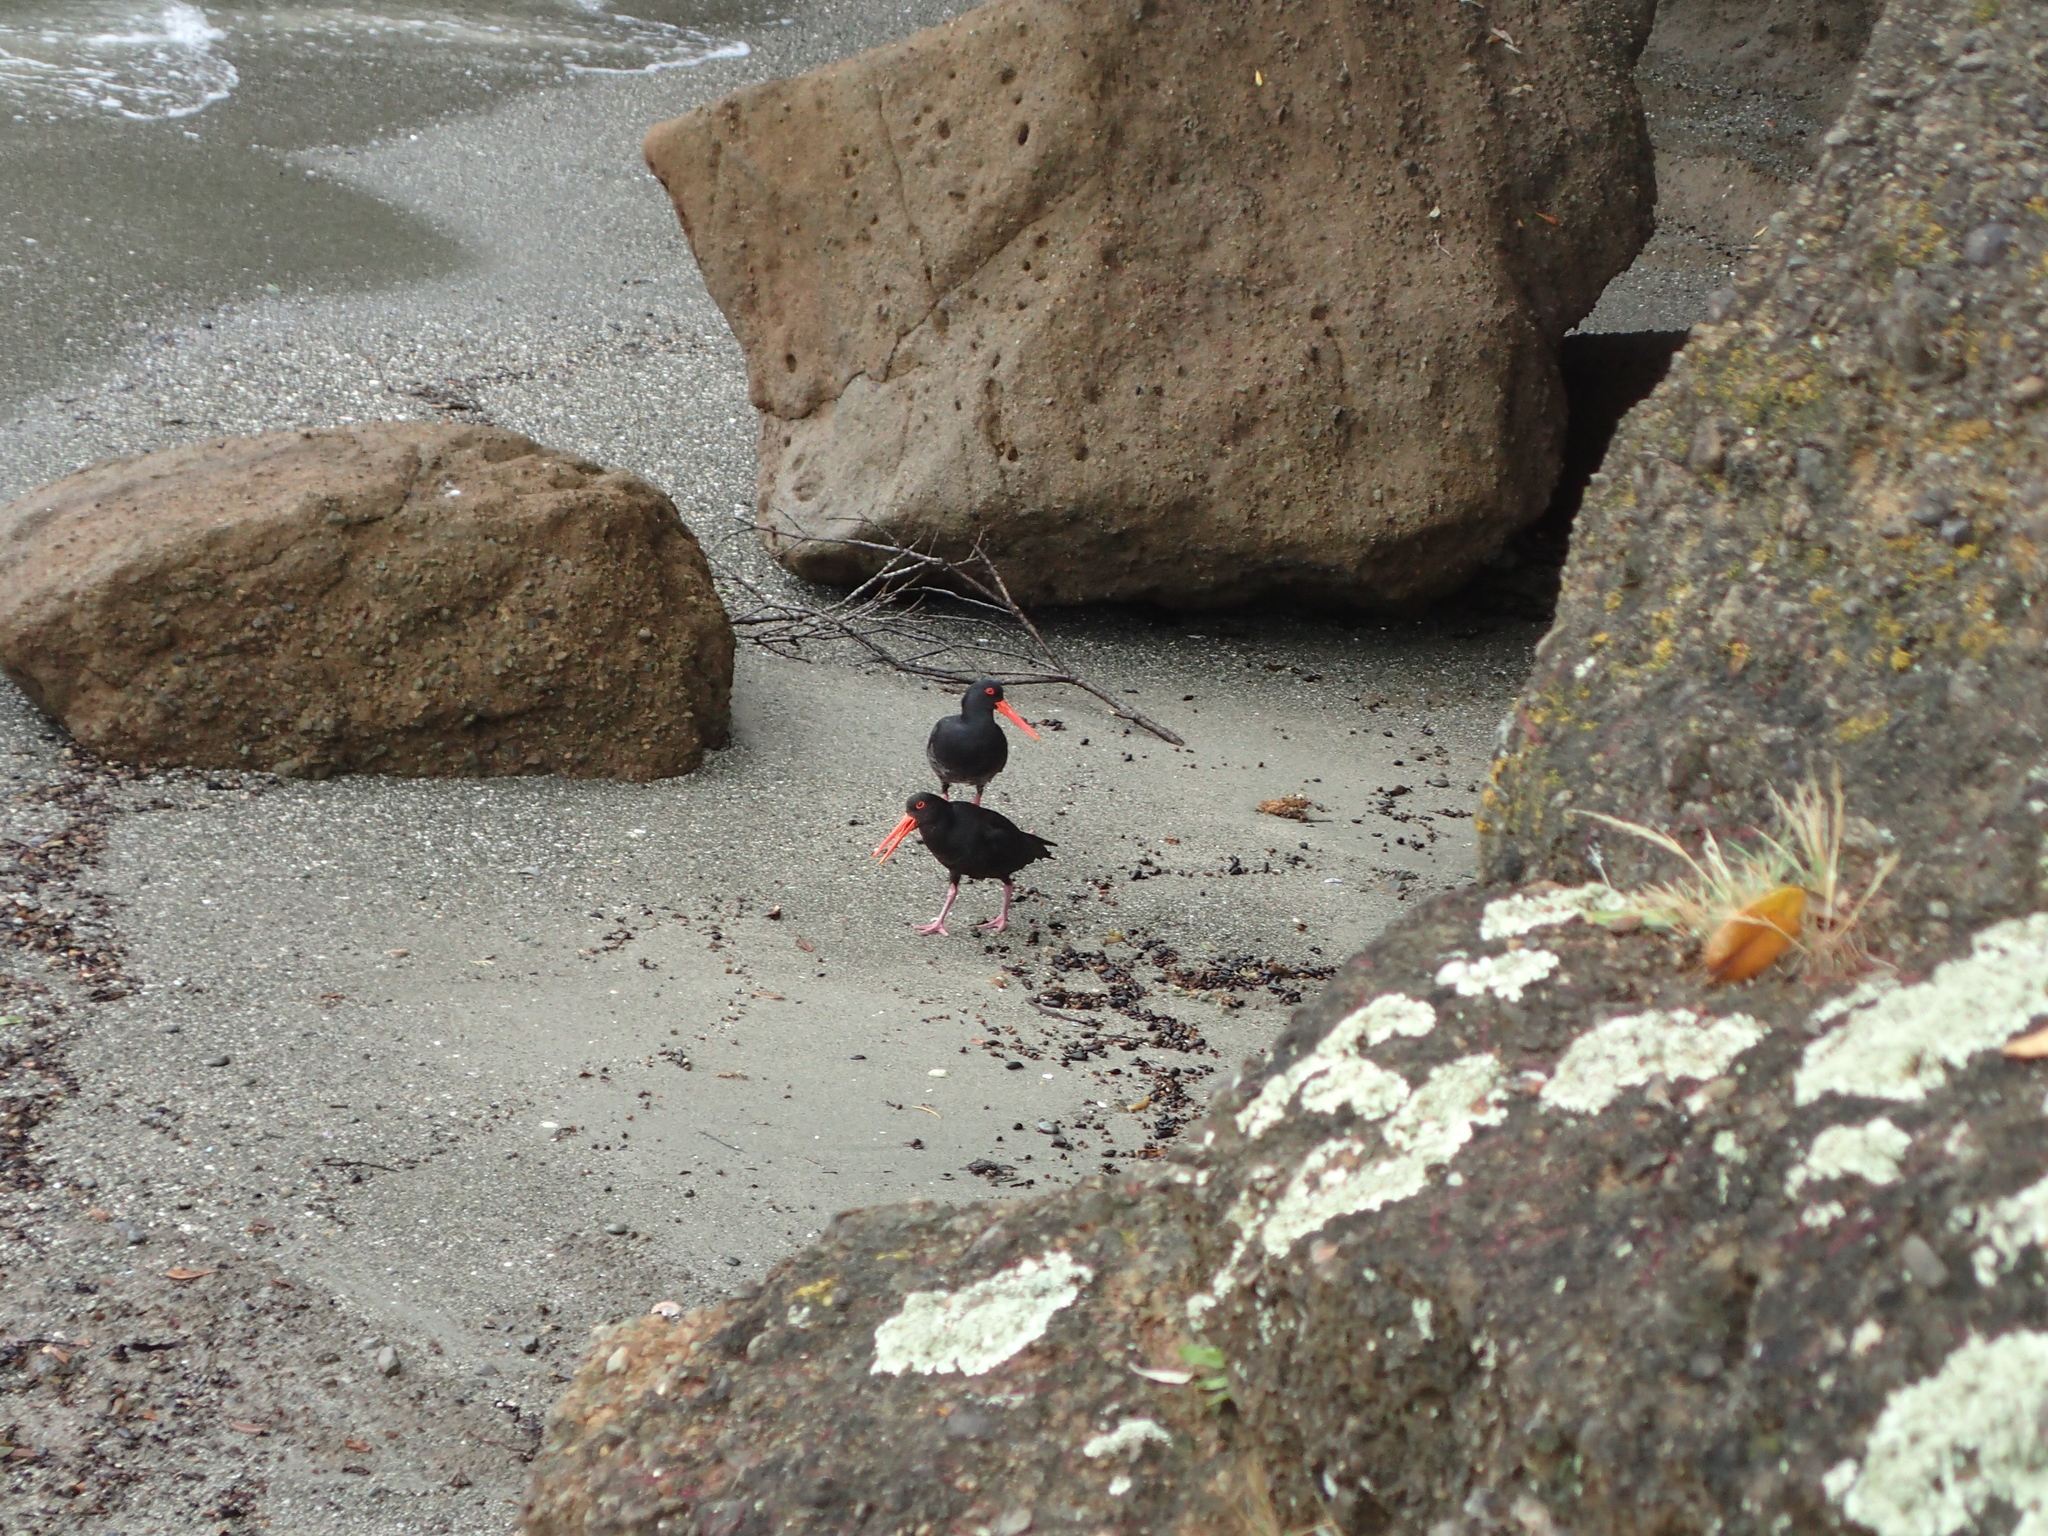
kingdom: Animalia
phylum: Chordata
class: Aves
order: Charadriiformes
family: Haematopodidae
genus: Haematopus
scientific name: Haematopus unicolor
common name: Variable oystercatcher
